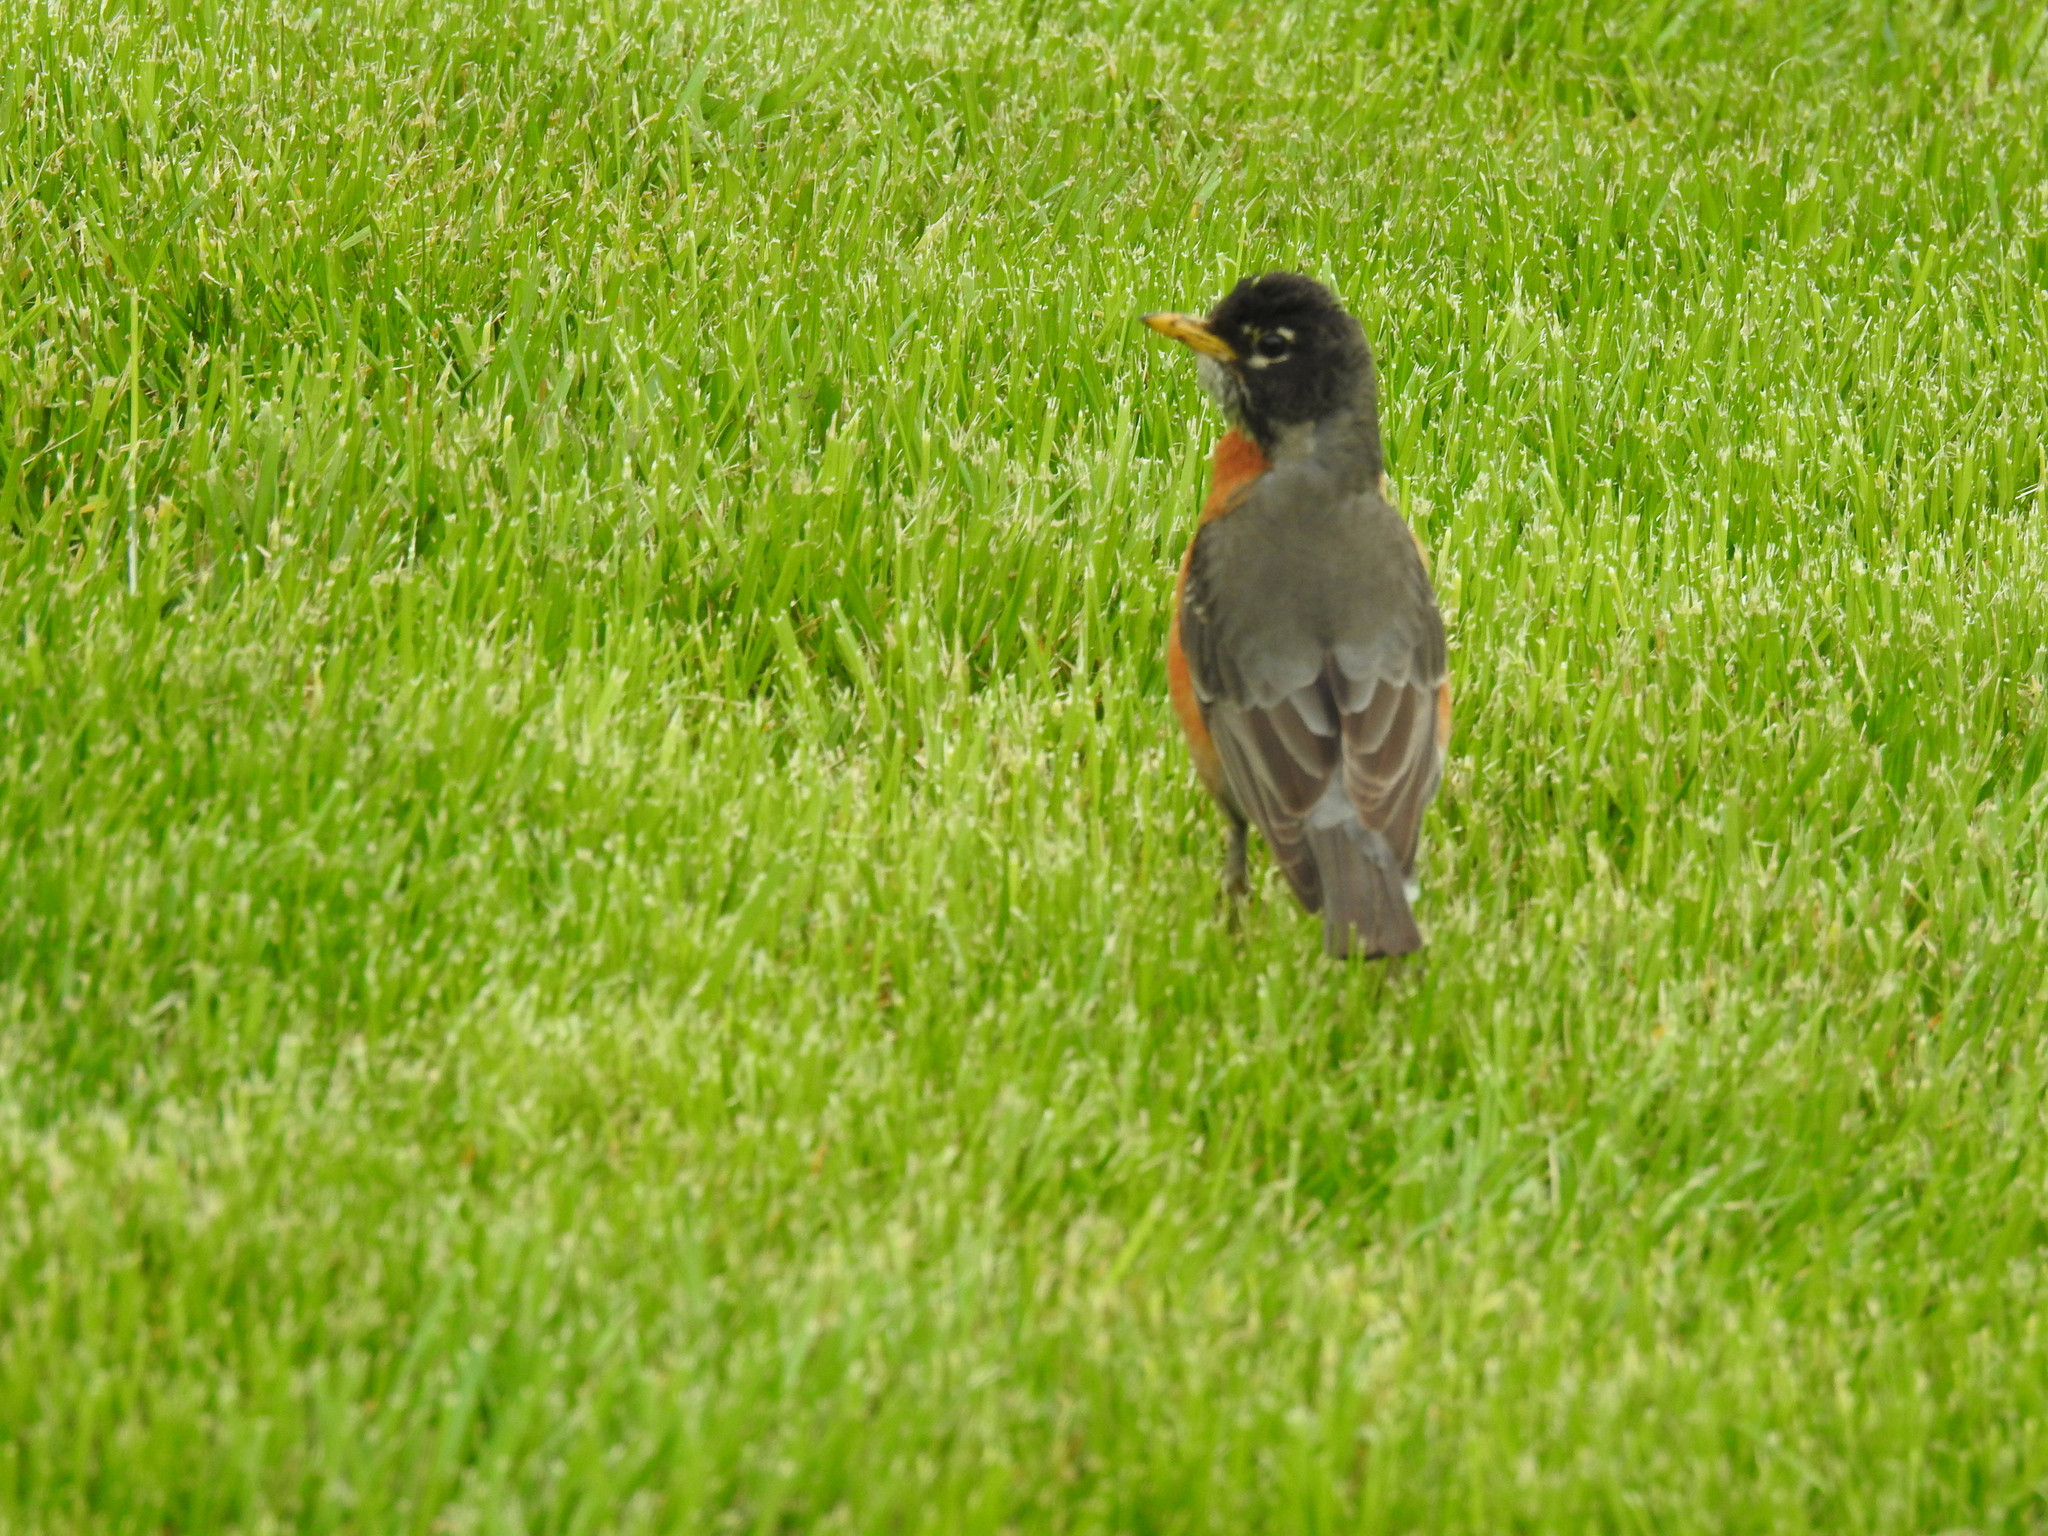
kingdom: Animalia
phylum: Chordata
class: Aves
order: Passeriformes
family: Turdidae
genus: Turdus
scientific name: Turdus migratorius
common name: American robin
